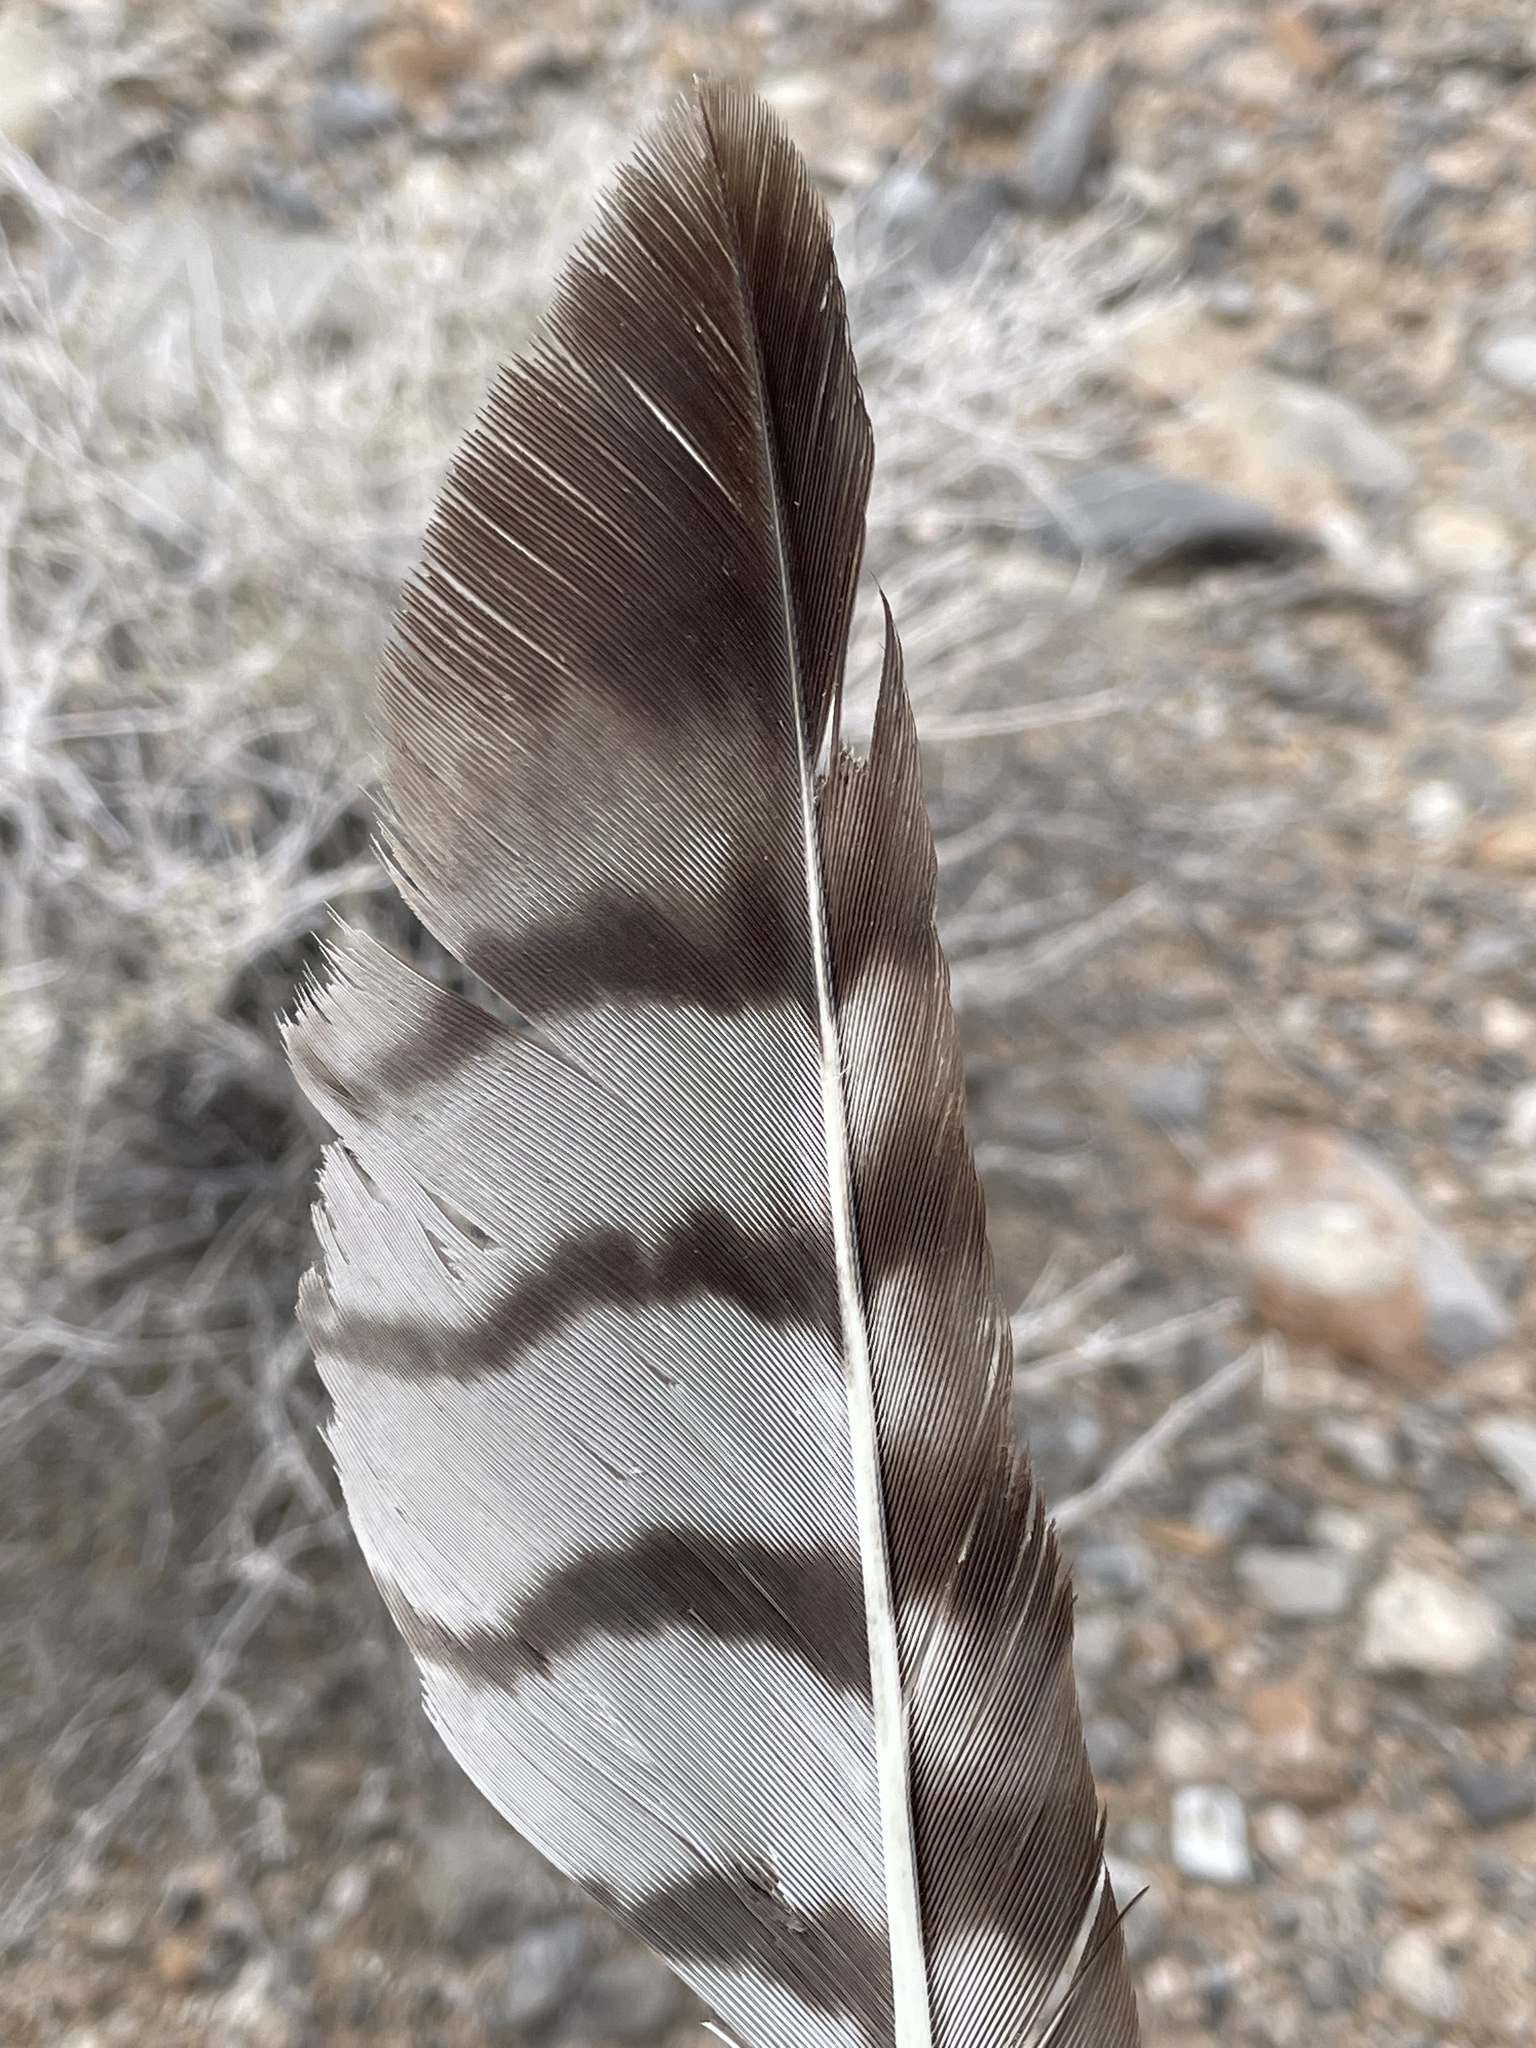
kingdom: Animalia
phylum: Chordata
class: Aves
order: Accipitriformes
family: Accipitridae
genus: Buteo
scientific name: Buteo jamaicensis
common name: Red-tailed hawk
